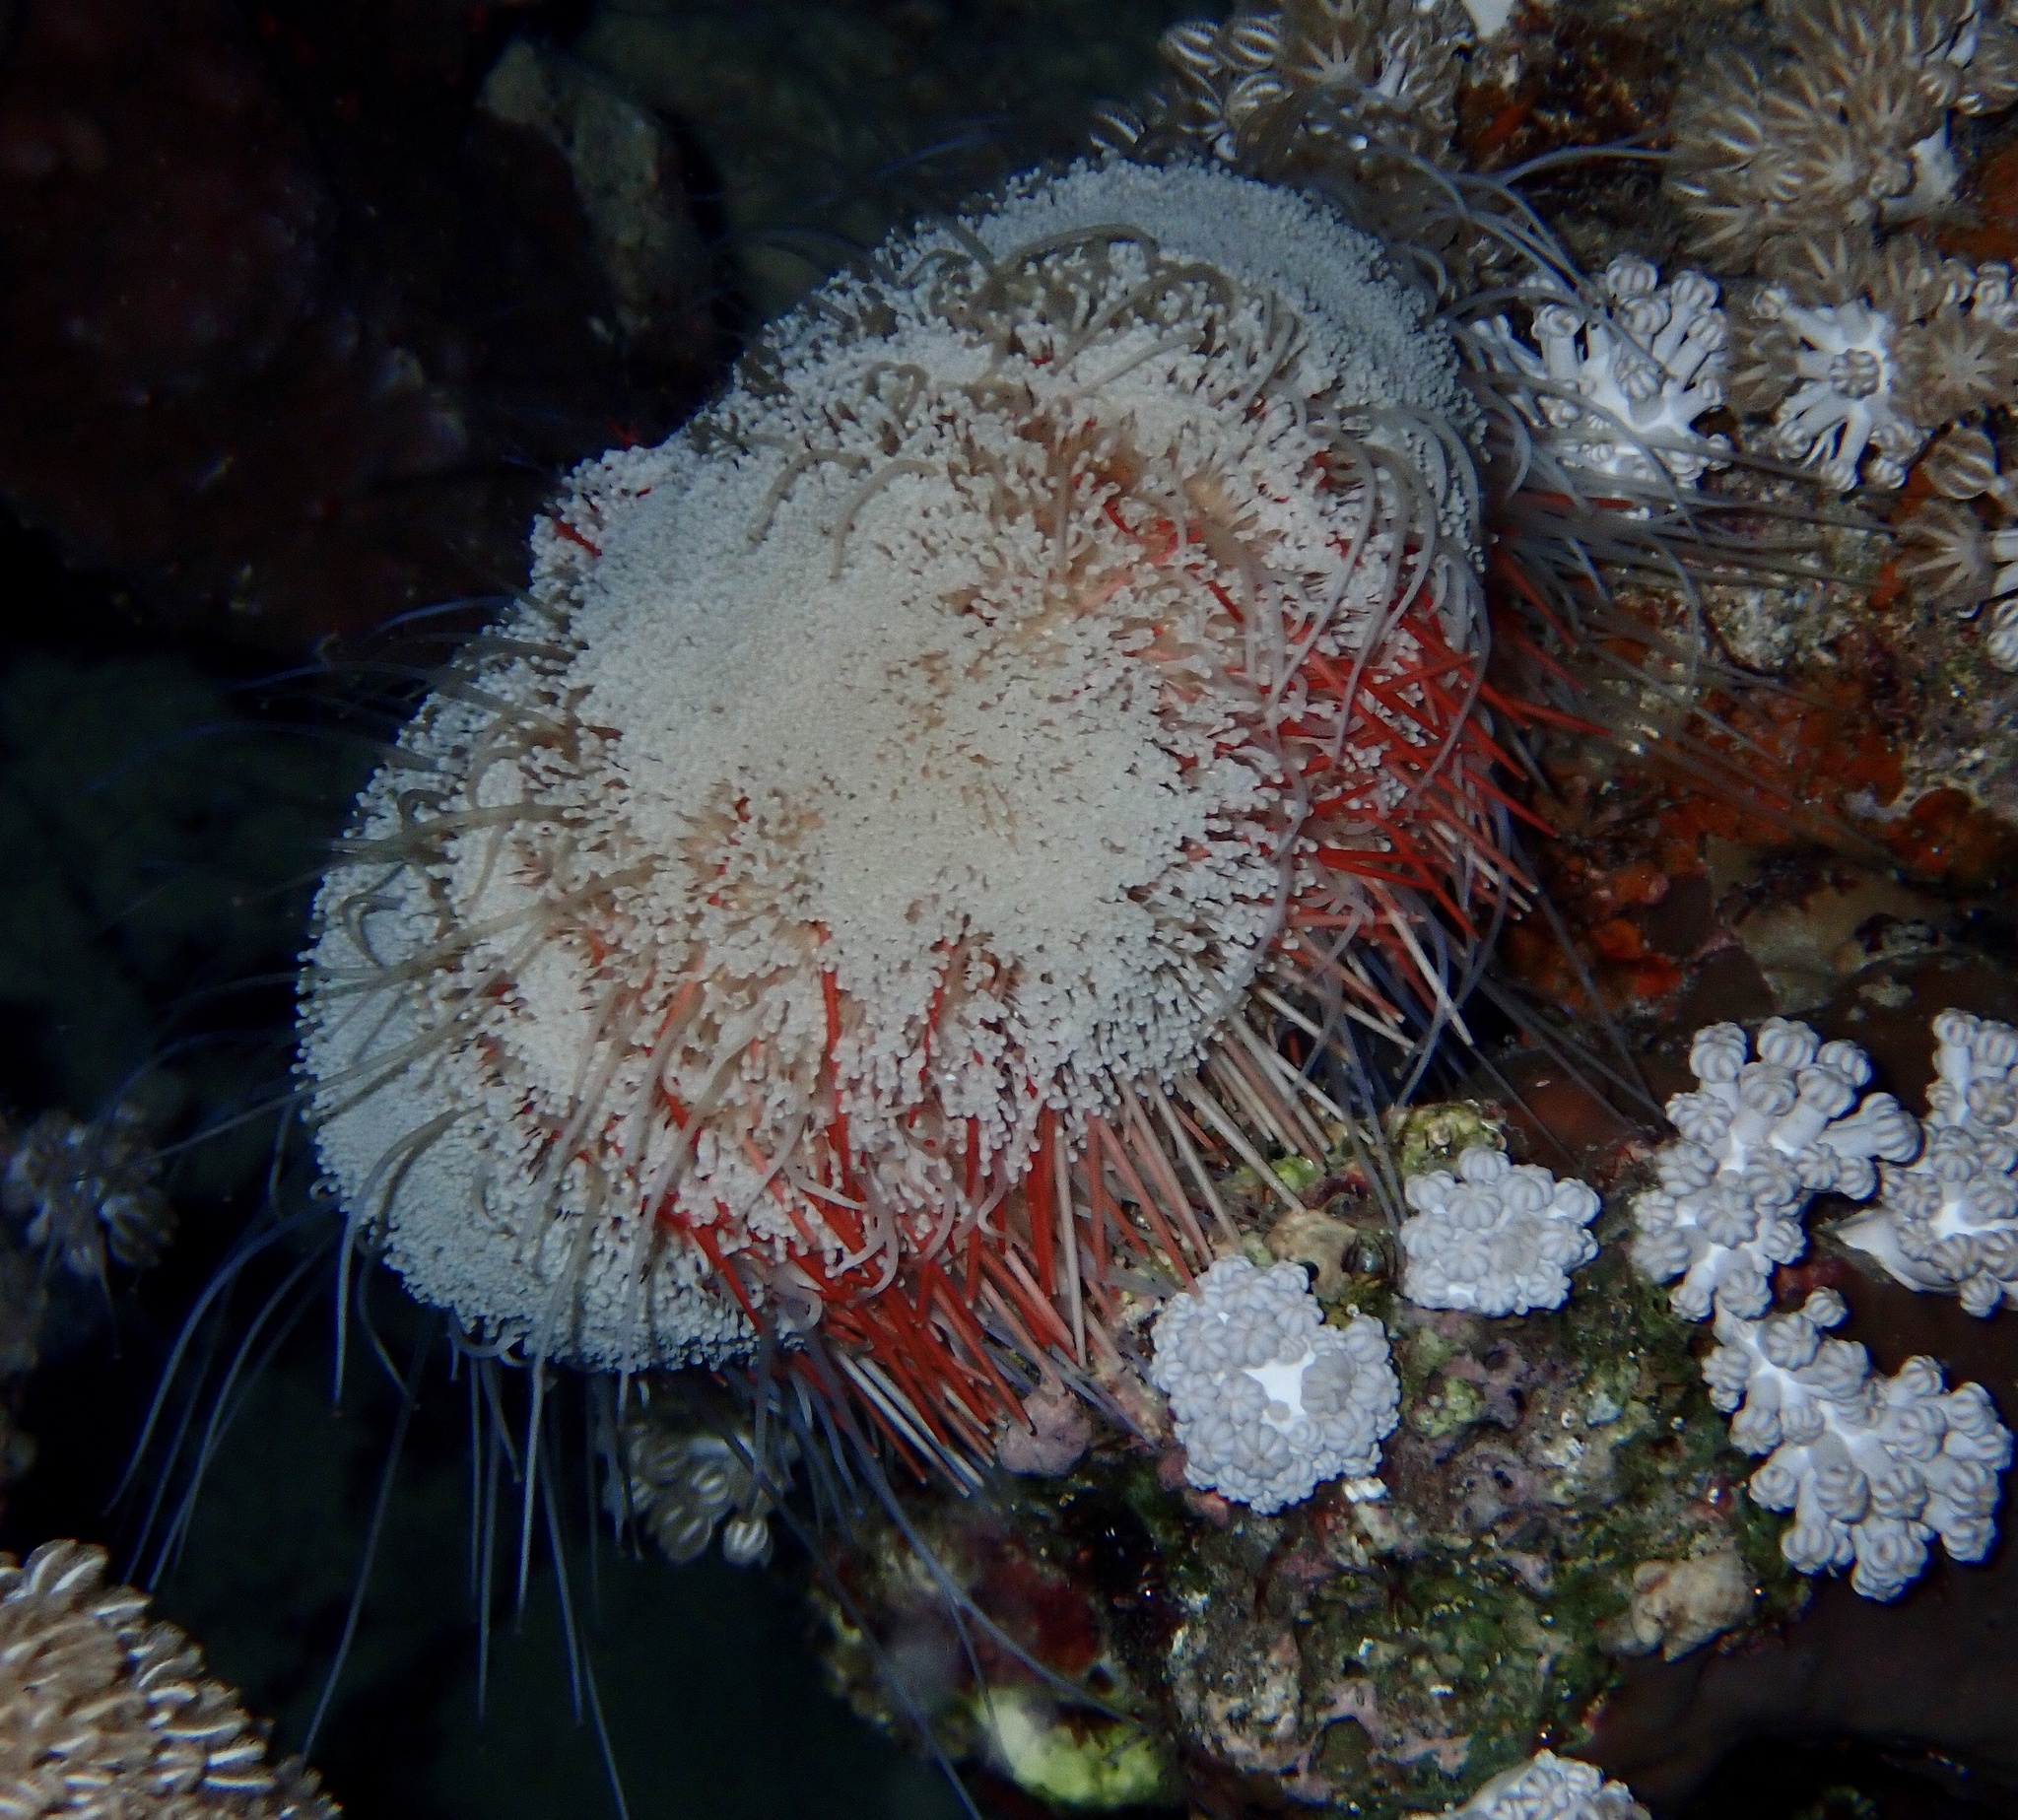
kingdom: Animalia
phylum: Echinodermata
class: Echinoidea
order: Camarodonta
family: Toxopneustidae
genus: Tripneustes
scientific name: Tripneustes gratilla
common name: Bischofsmützenseeigel
